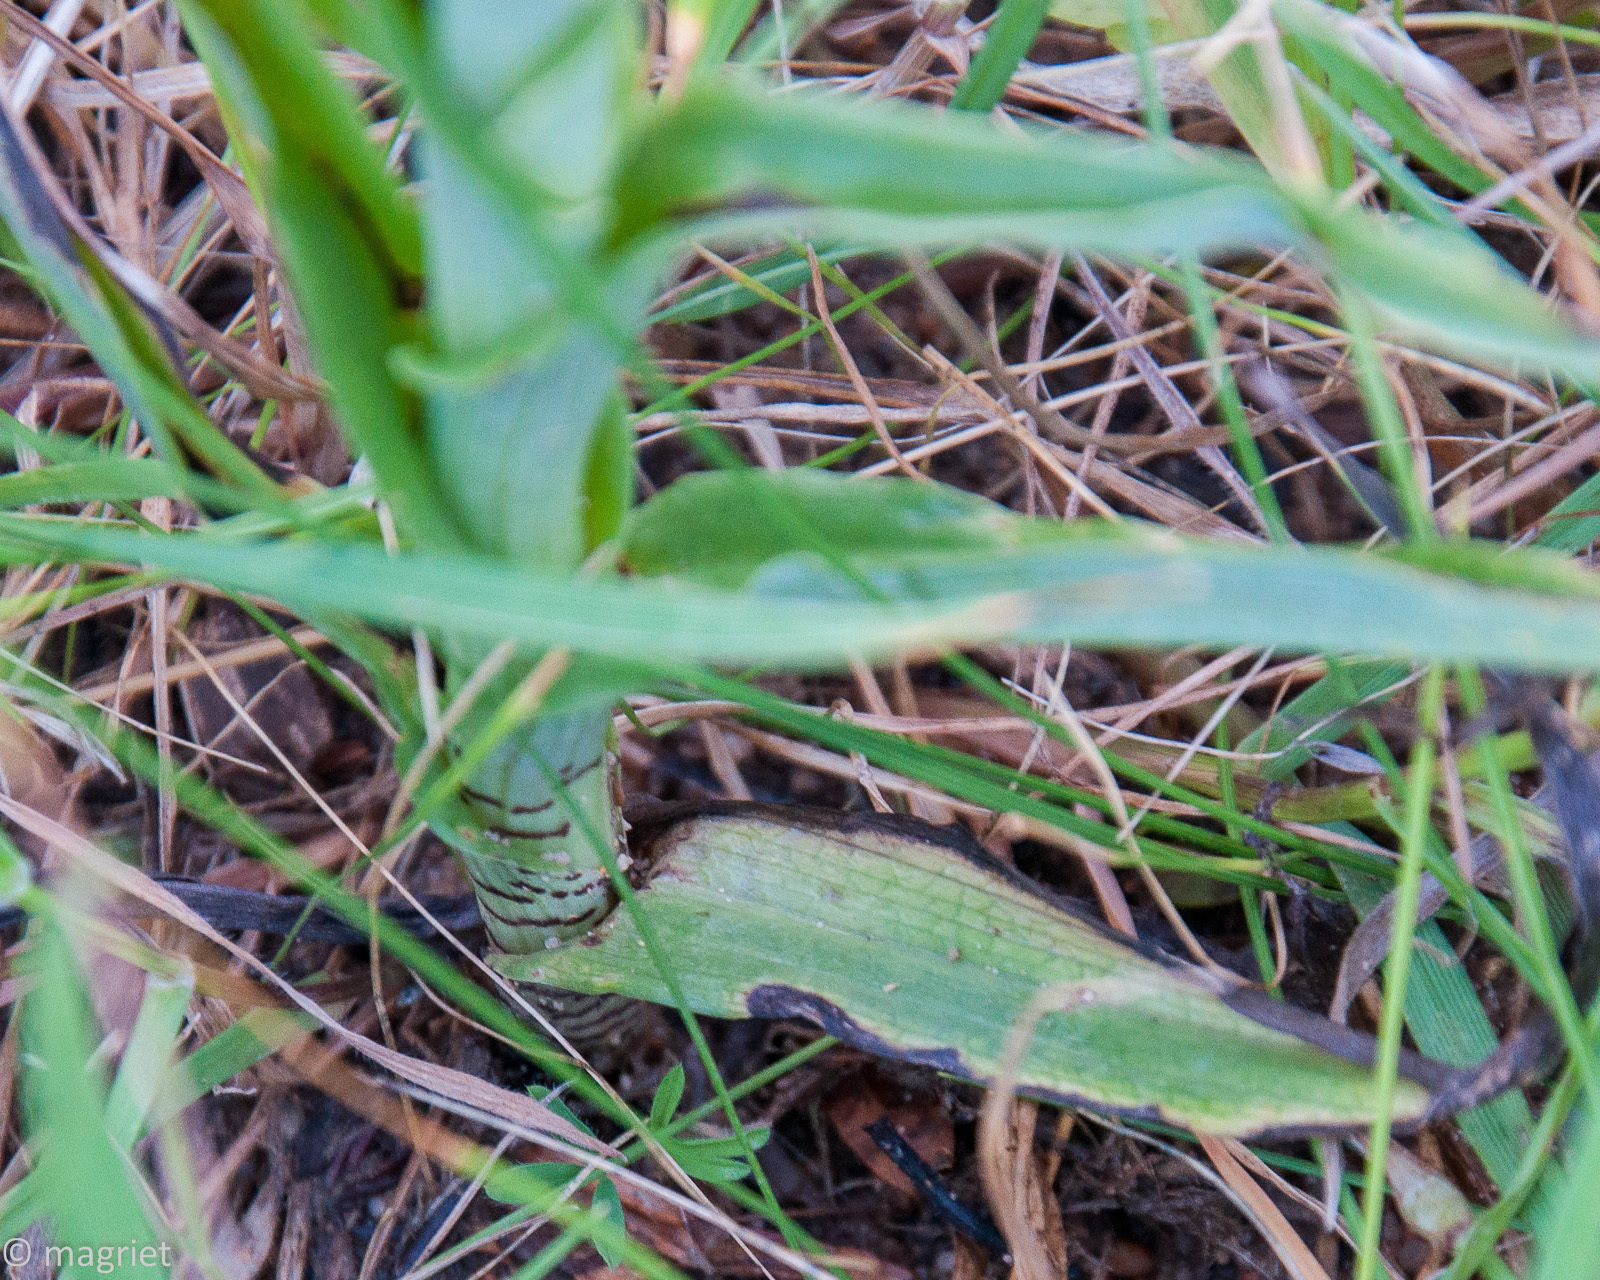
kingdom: Plantae
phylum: Tracheophyta
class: Liliopsida
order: Asparagales
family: Orchidaceae
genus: Corycium
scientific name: Corycium orobanchoides
